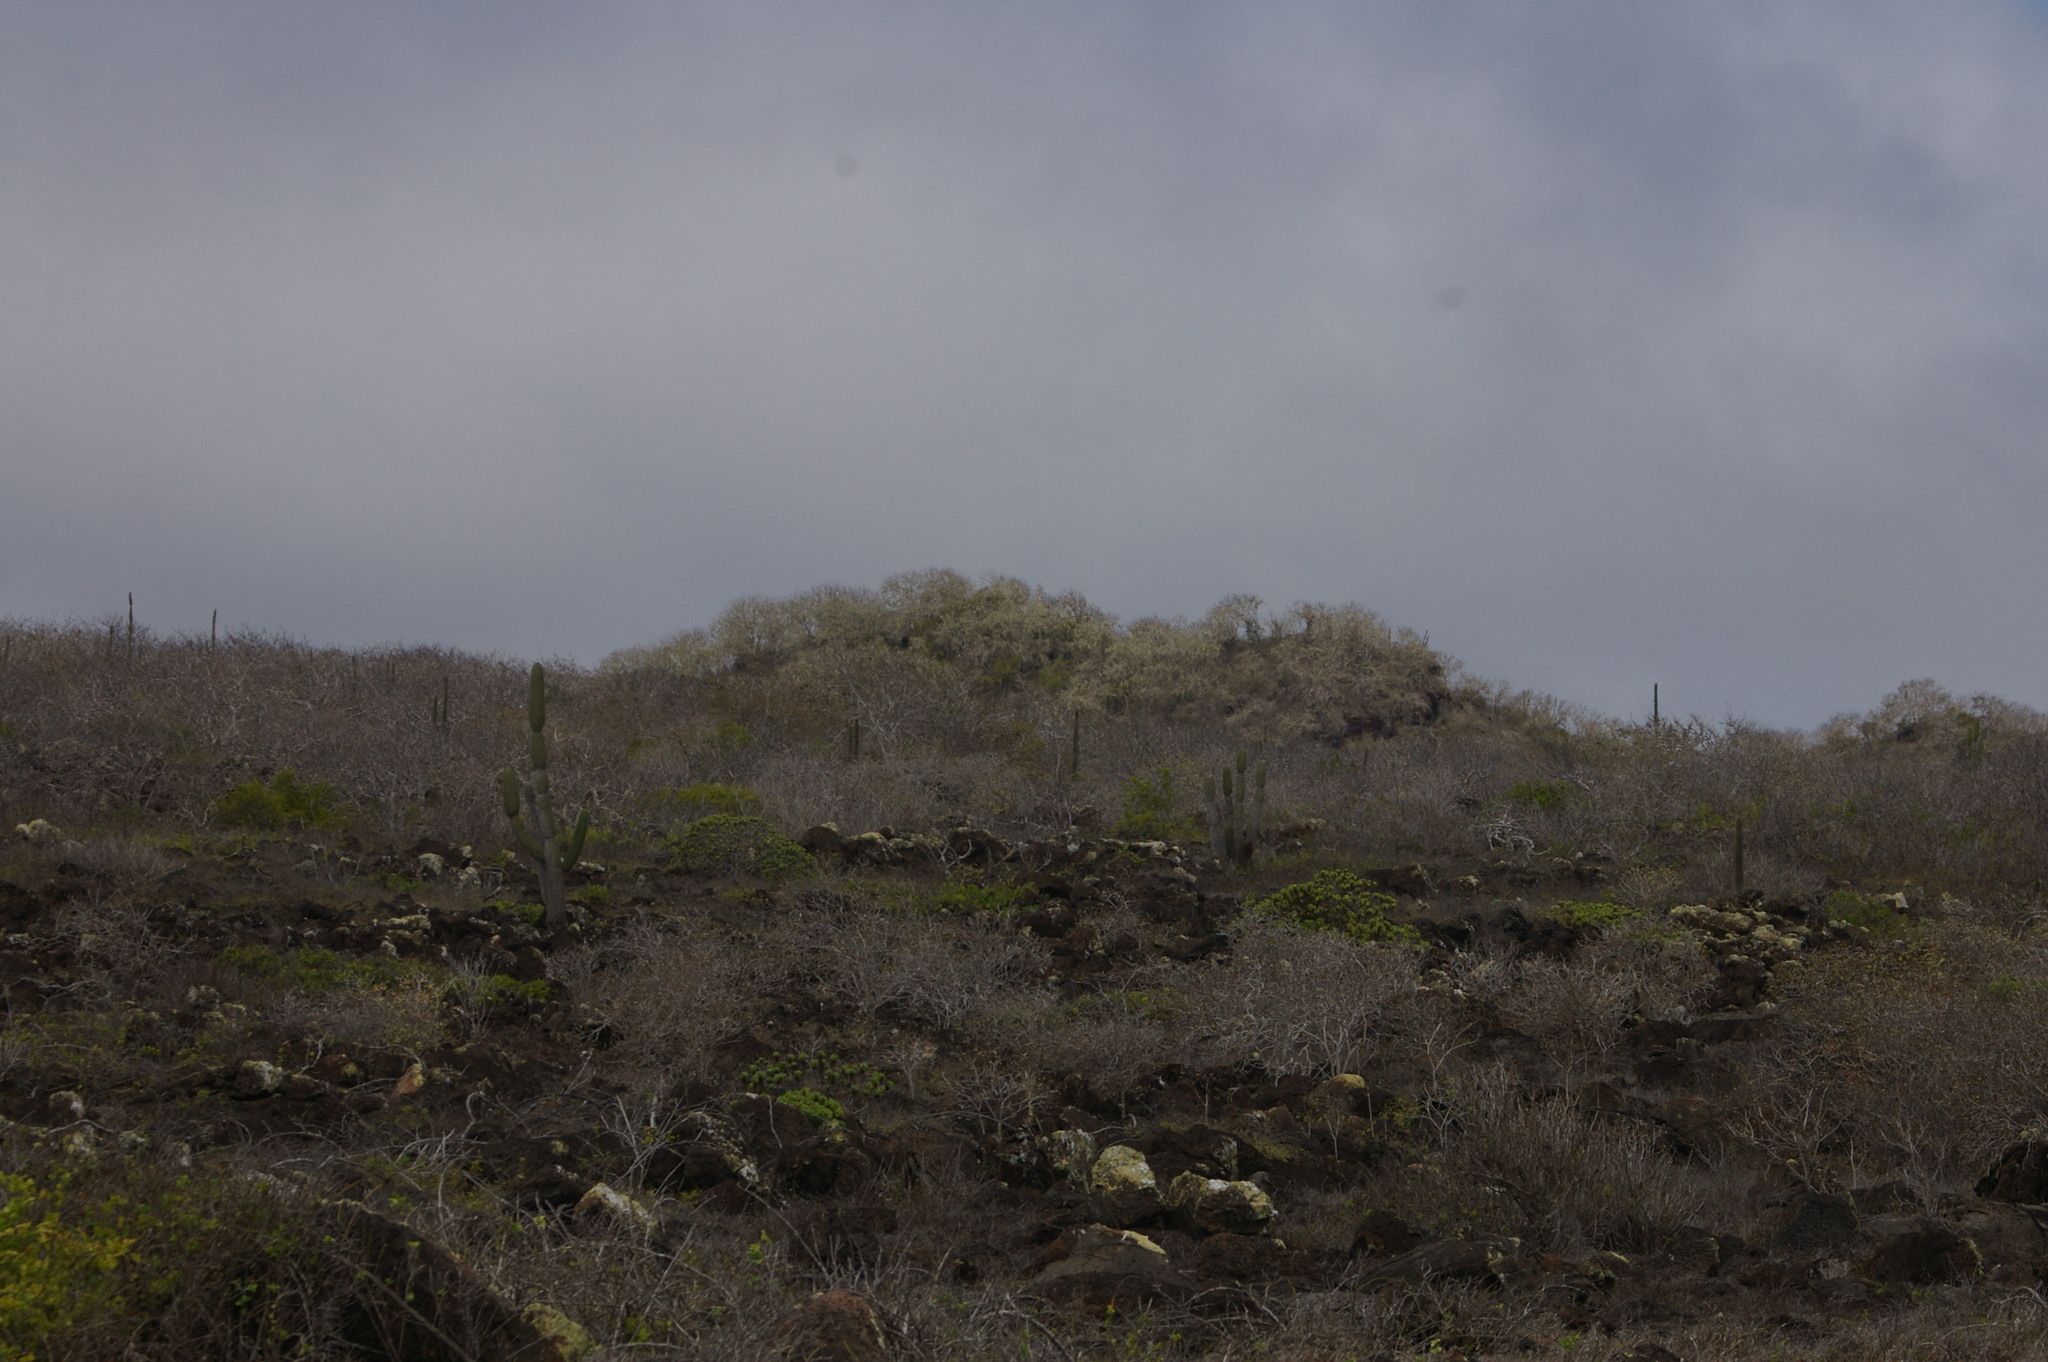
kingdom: Plantae
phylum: Tracheophyta
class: Magnoliopsida
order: Caryophyllales
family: Cactaceae
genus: Jasminocereus
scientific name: Jasminocereus thouarsii
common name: Candelabra cactus
